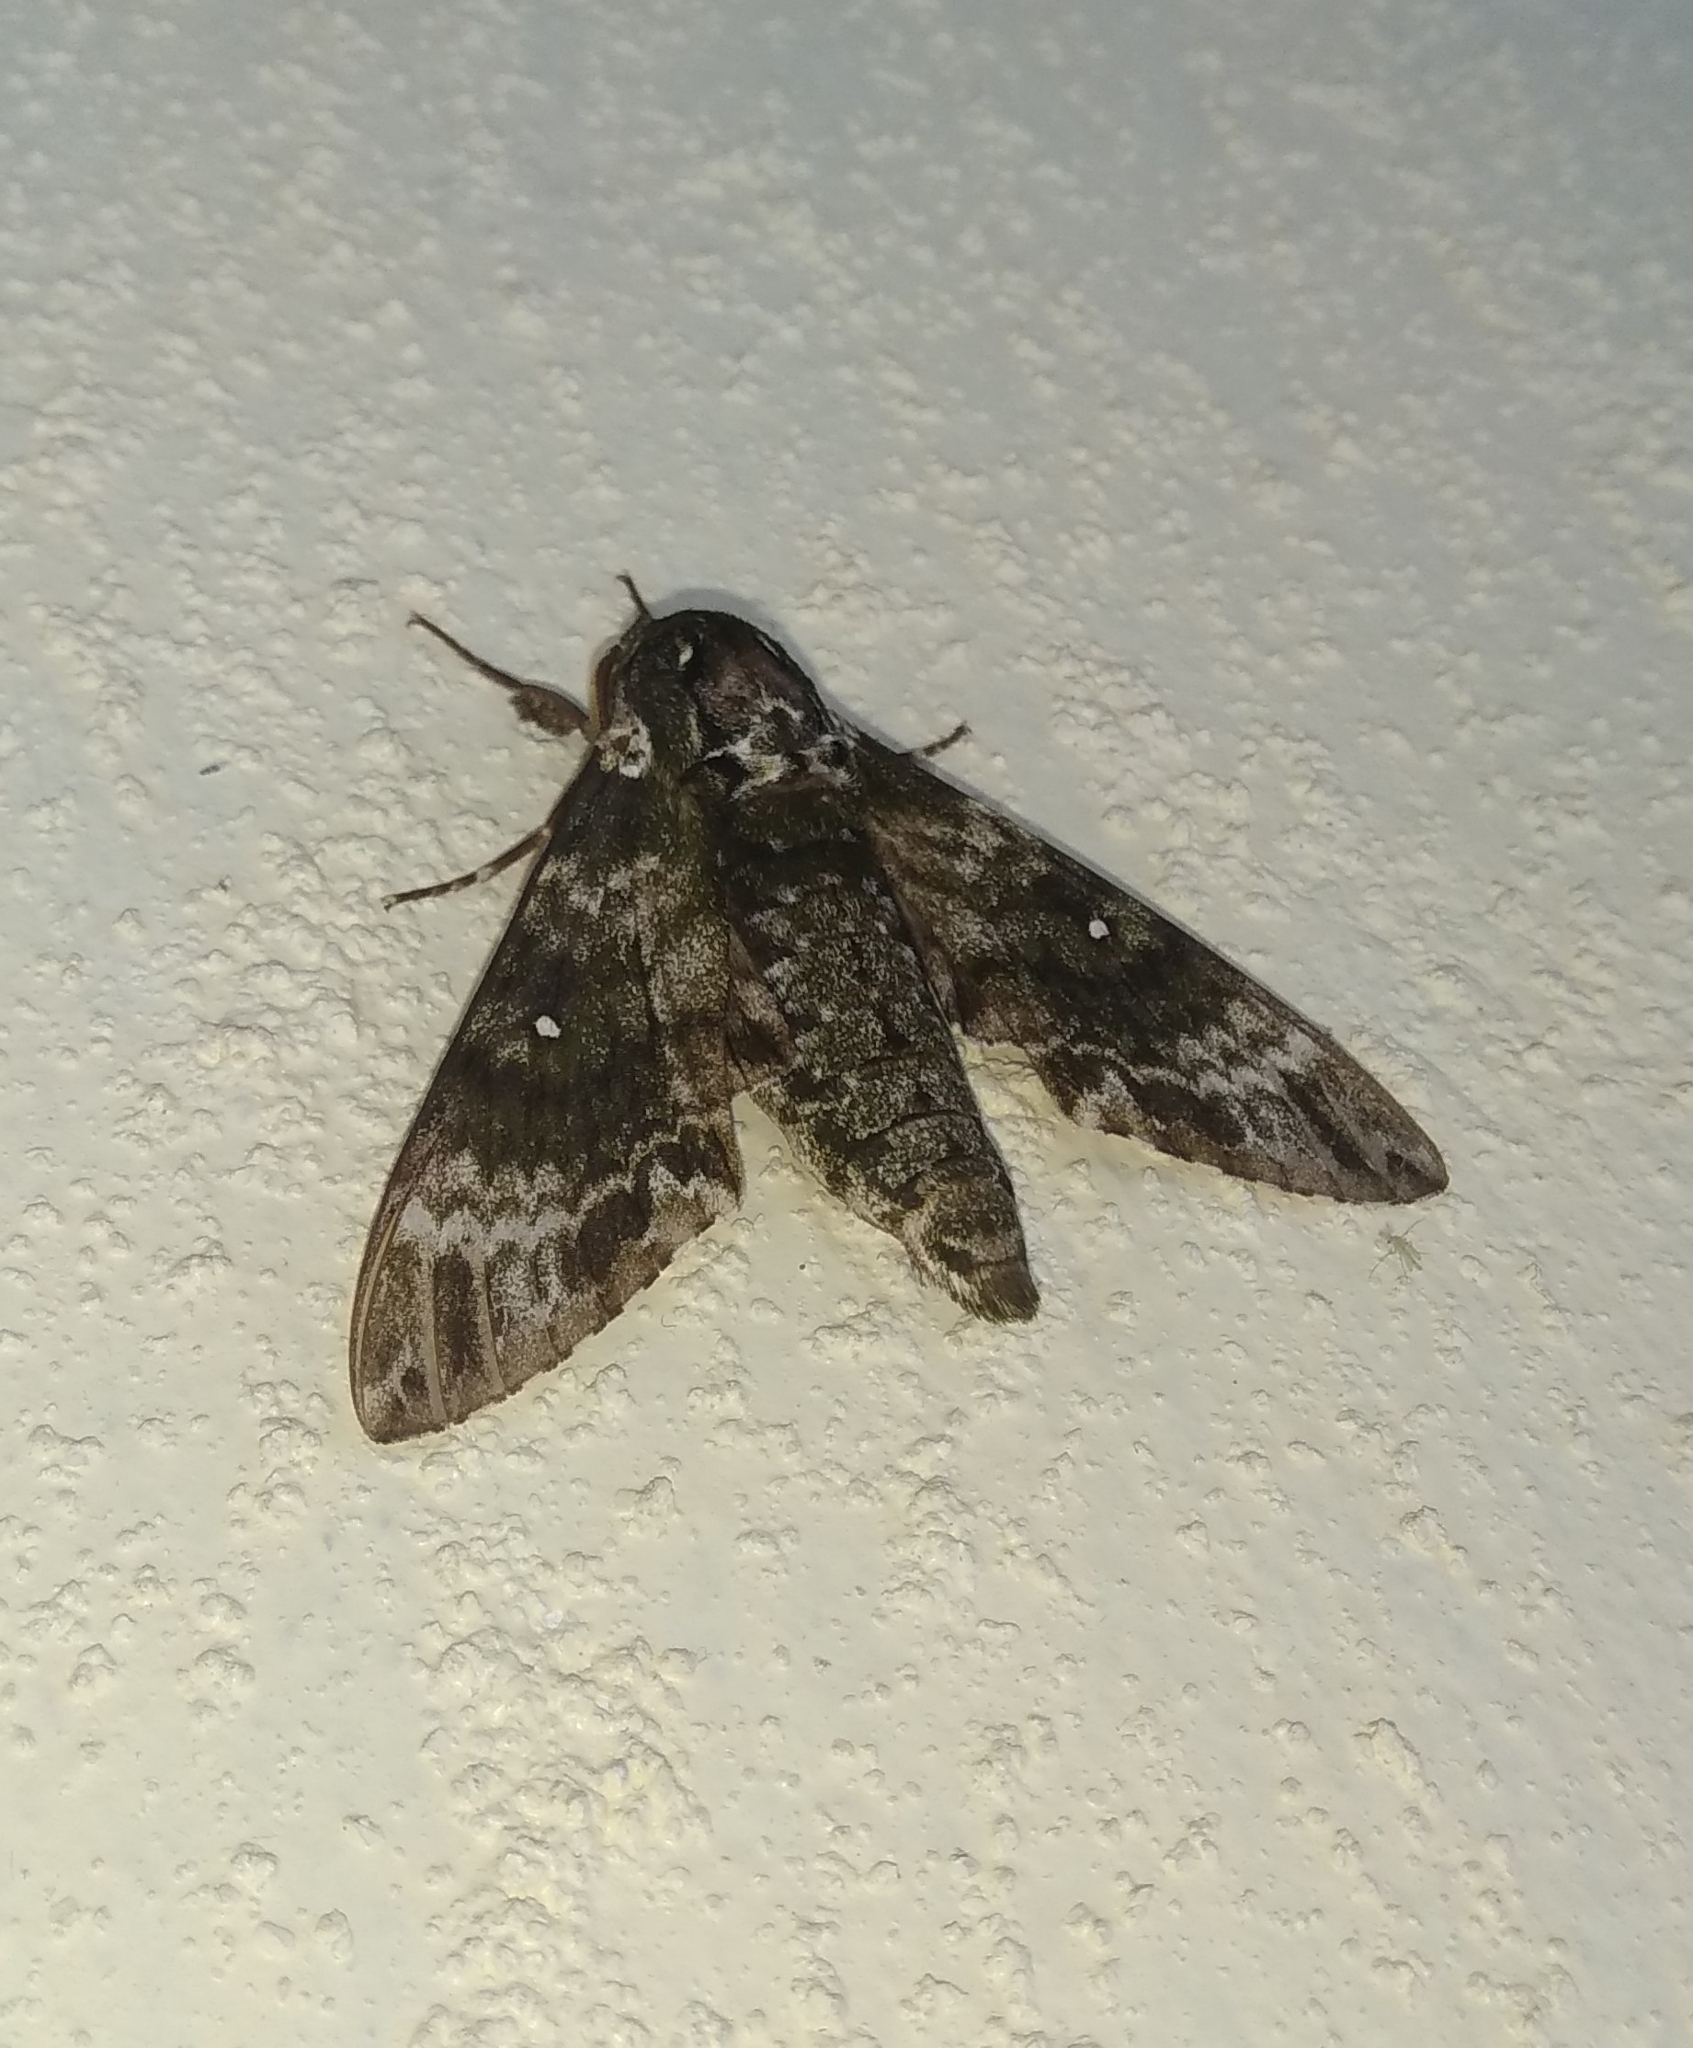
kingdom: Animalia
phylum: Arthropoda
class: Insecta
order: Lepidoptera
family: Sphingidae
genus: Dolbina
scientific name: Dolbina manjunatha
